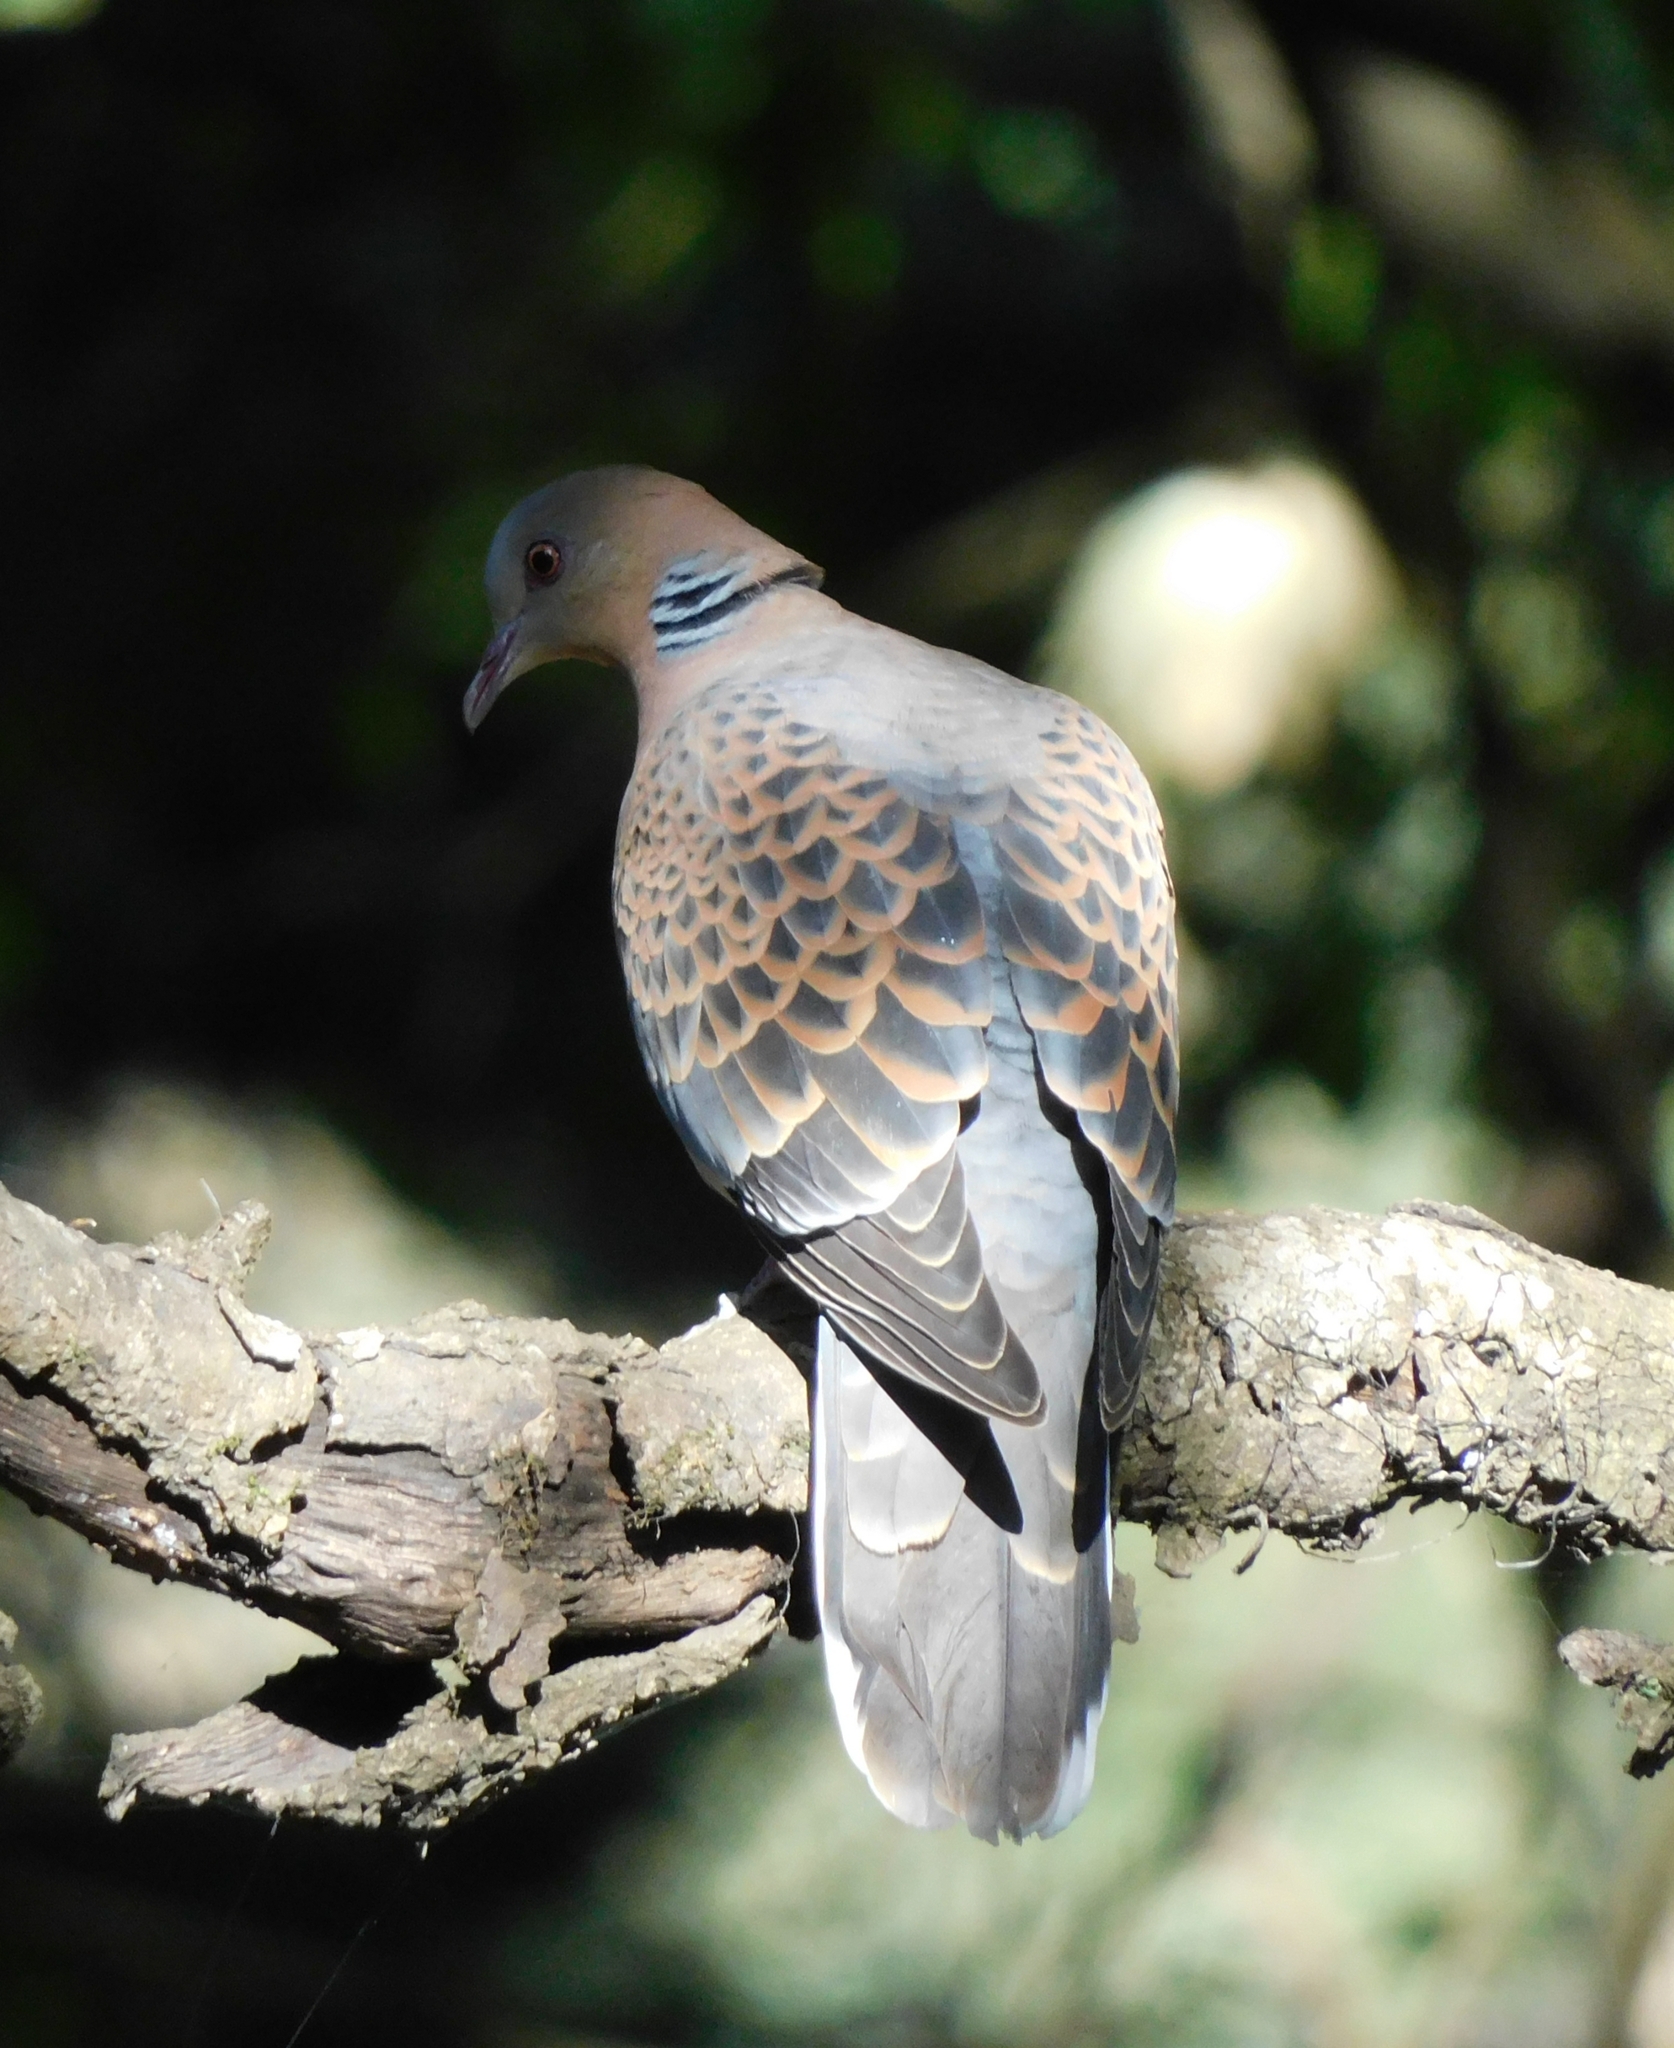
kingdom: Animalia
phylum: Chordata
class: Aves
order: Columbiformes
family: Columbidae
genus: Streptopelia
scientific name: Streptopelia orientalis
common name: Oriental turtle dove
